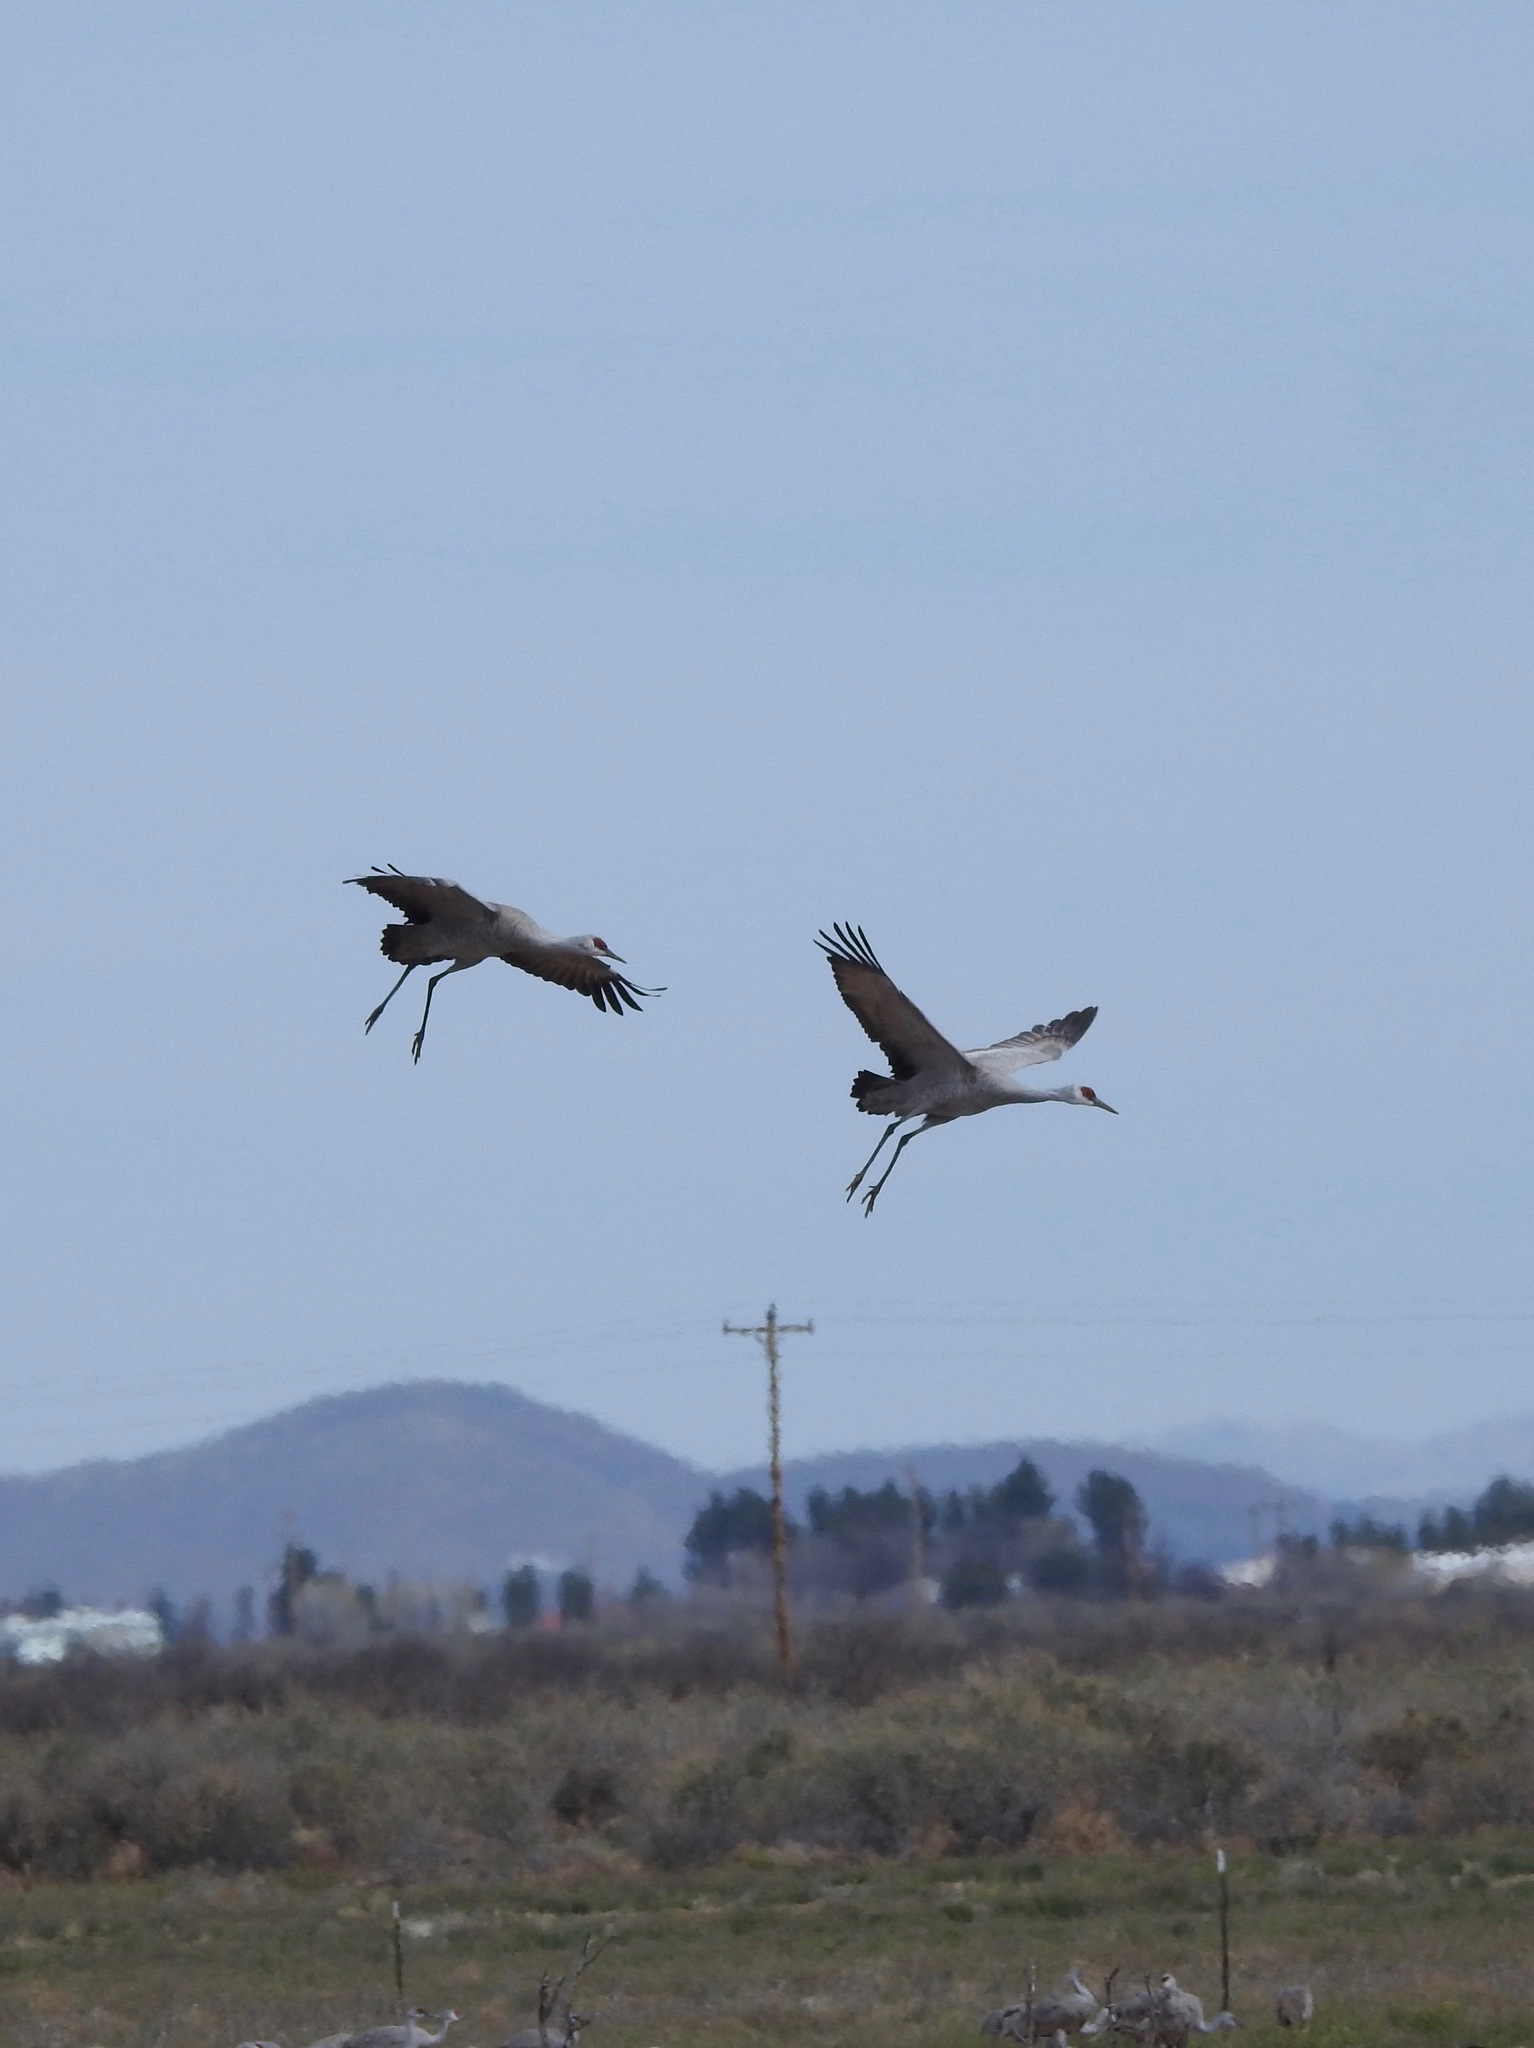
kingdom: Animalia
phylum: Chordata
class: Aves
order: Gruiformes
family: Gruidae
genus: Grus
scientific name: Grus canadensis
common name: Sandhill crane
